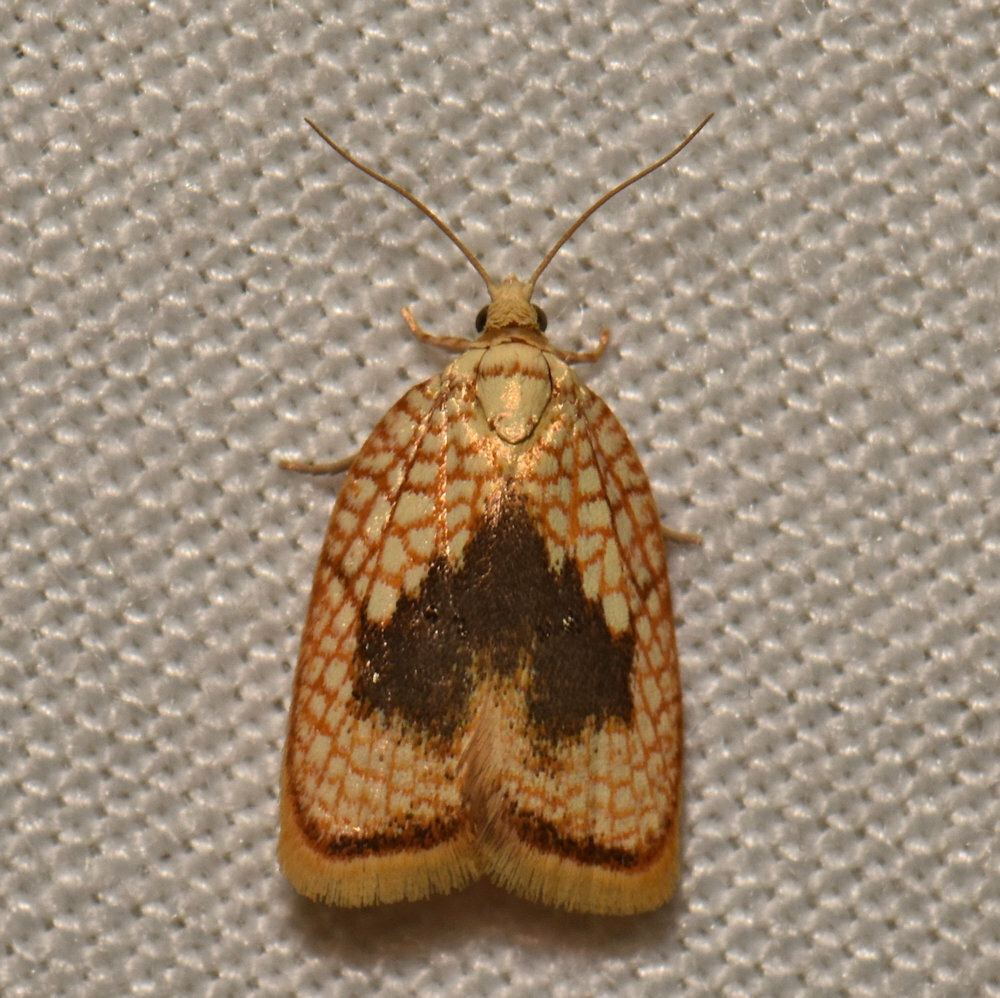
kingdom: Animalia
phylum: Arthropoda
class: Insecta
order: Lepidoptera
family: Tortricidae
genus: Acleris
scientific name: Acleris forsskaleana
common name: Maple button
